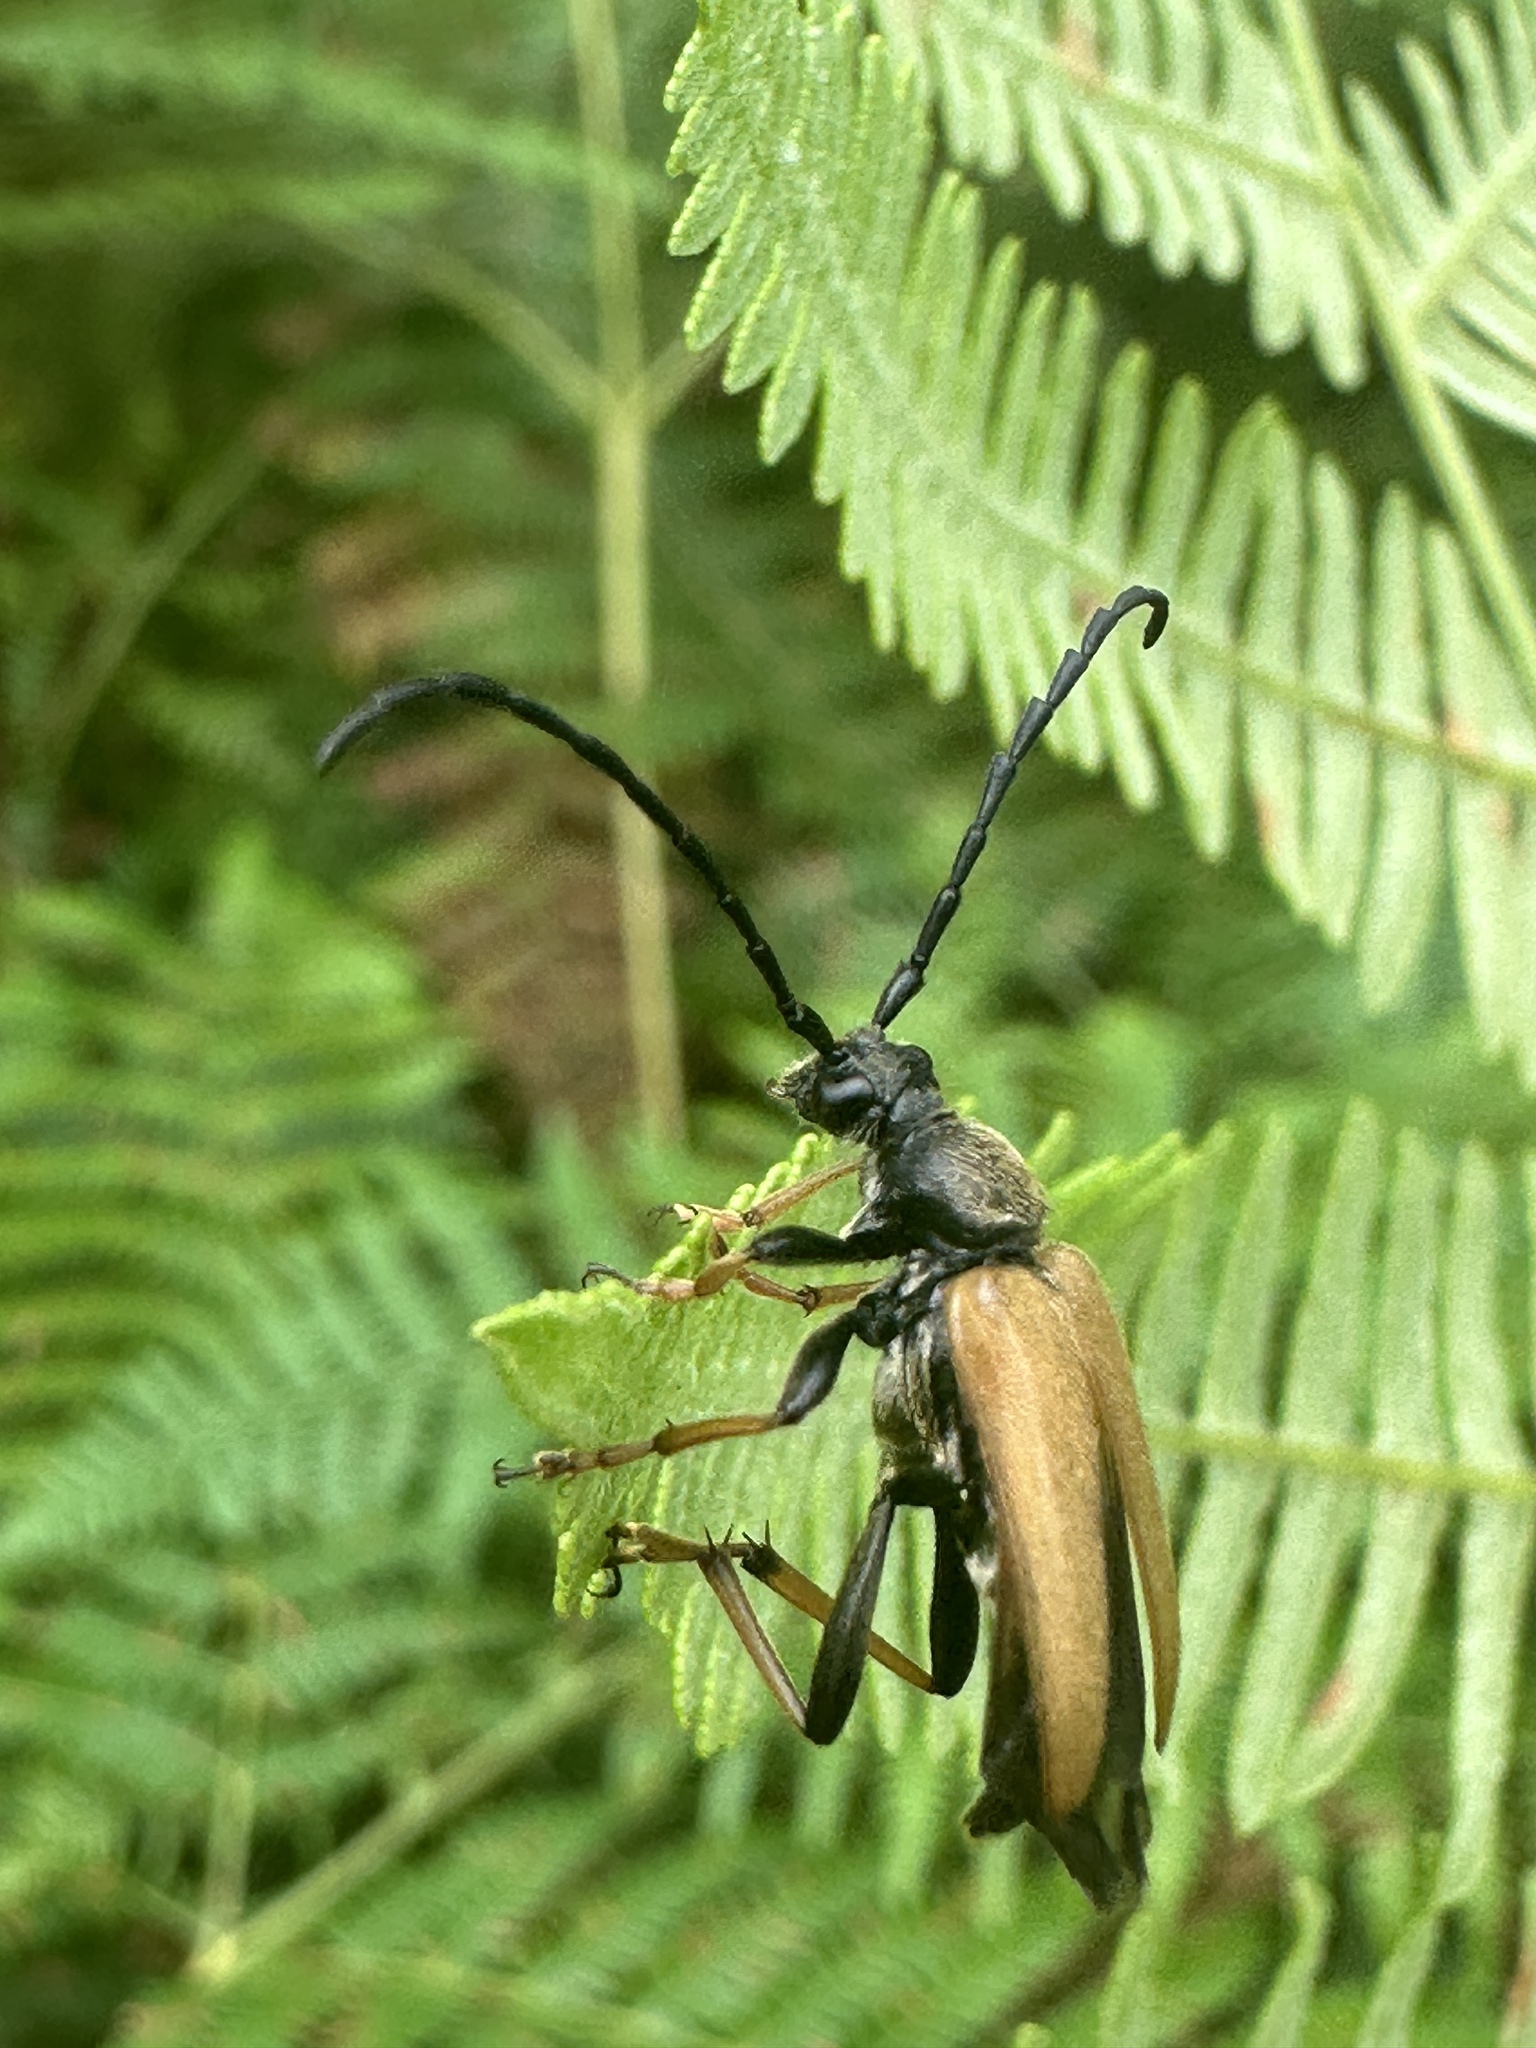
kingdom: Animalia
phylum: Arthropoda
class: Insecta
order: Coleoptera
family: Cerambycidae
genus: Stictoleptura
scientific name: Stictoleptura rubra
